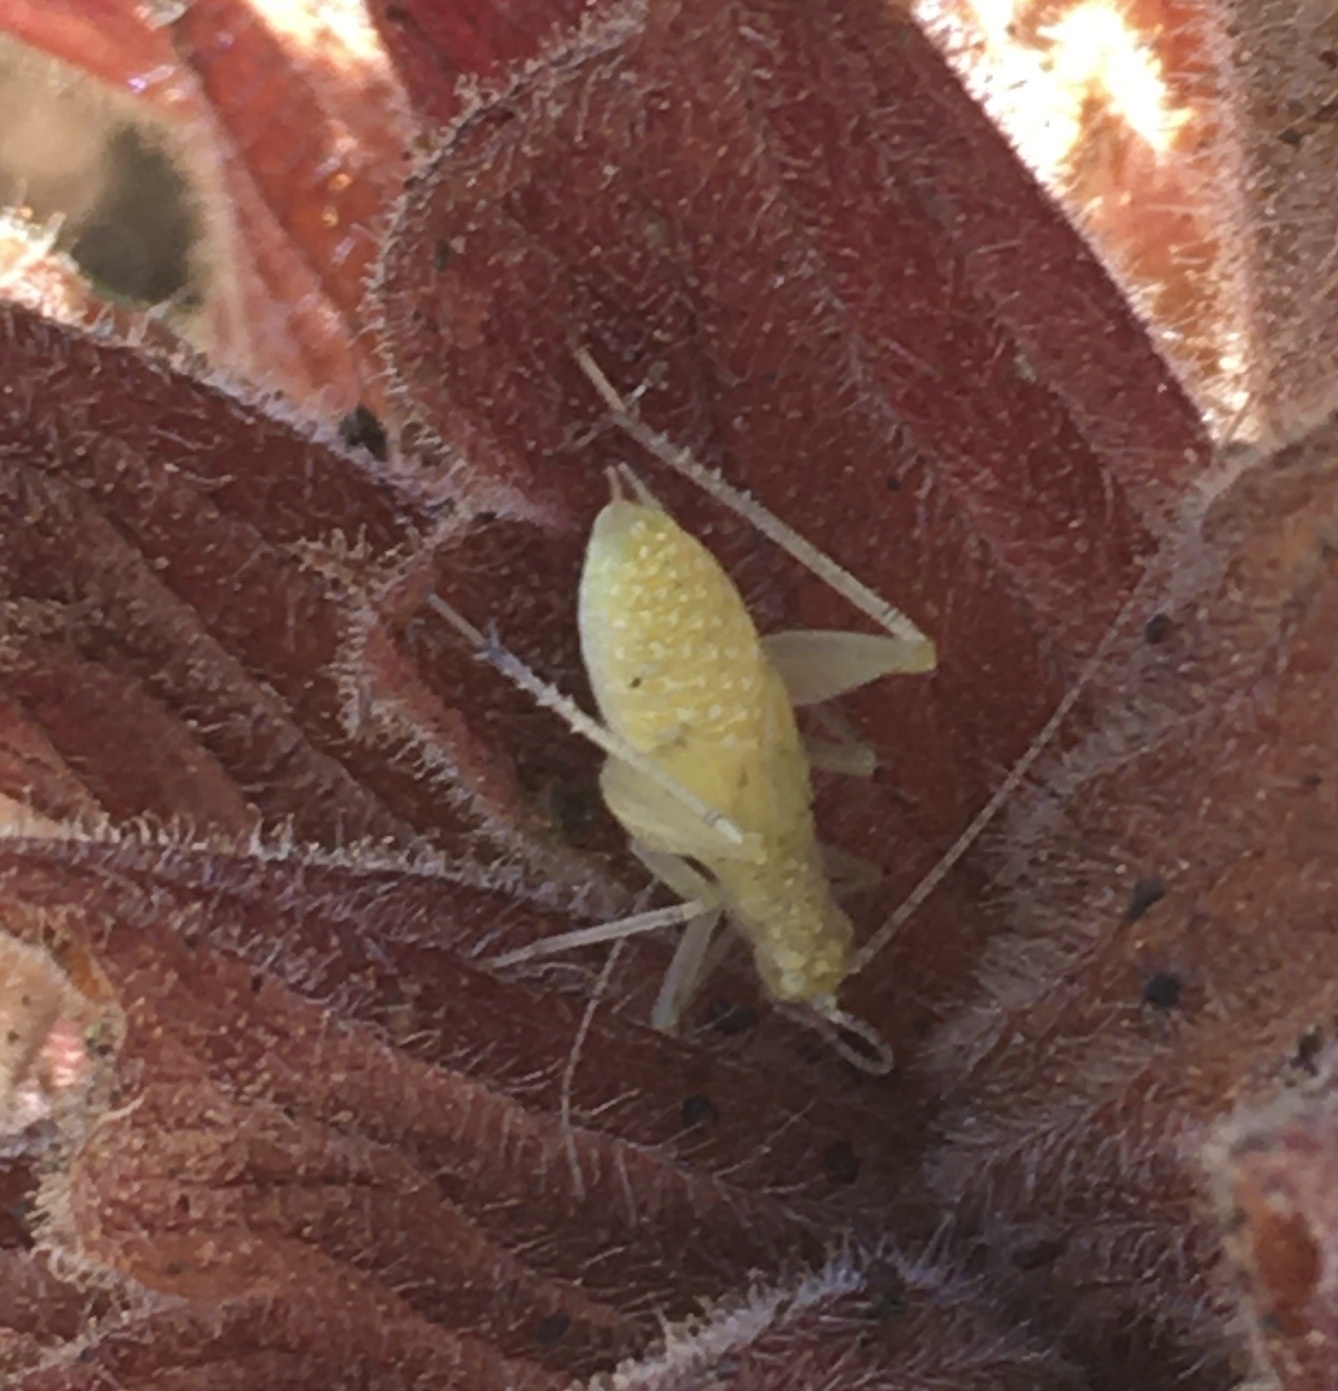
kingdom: Animalia
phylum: Arthropoda
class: Insecta
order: Orthoptera
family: Gryllidae
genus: Oecanthus
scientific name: Oecanthus
